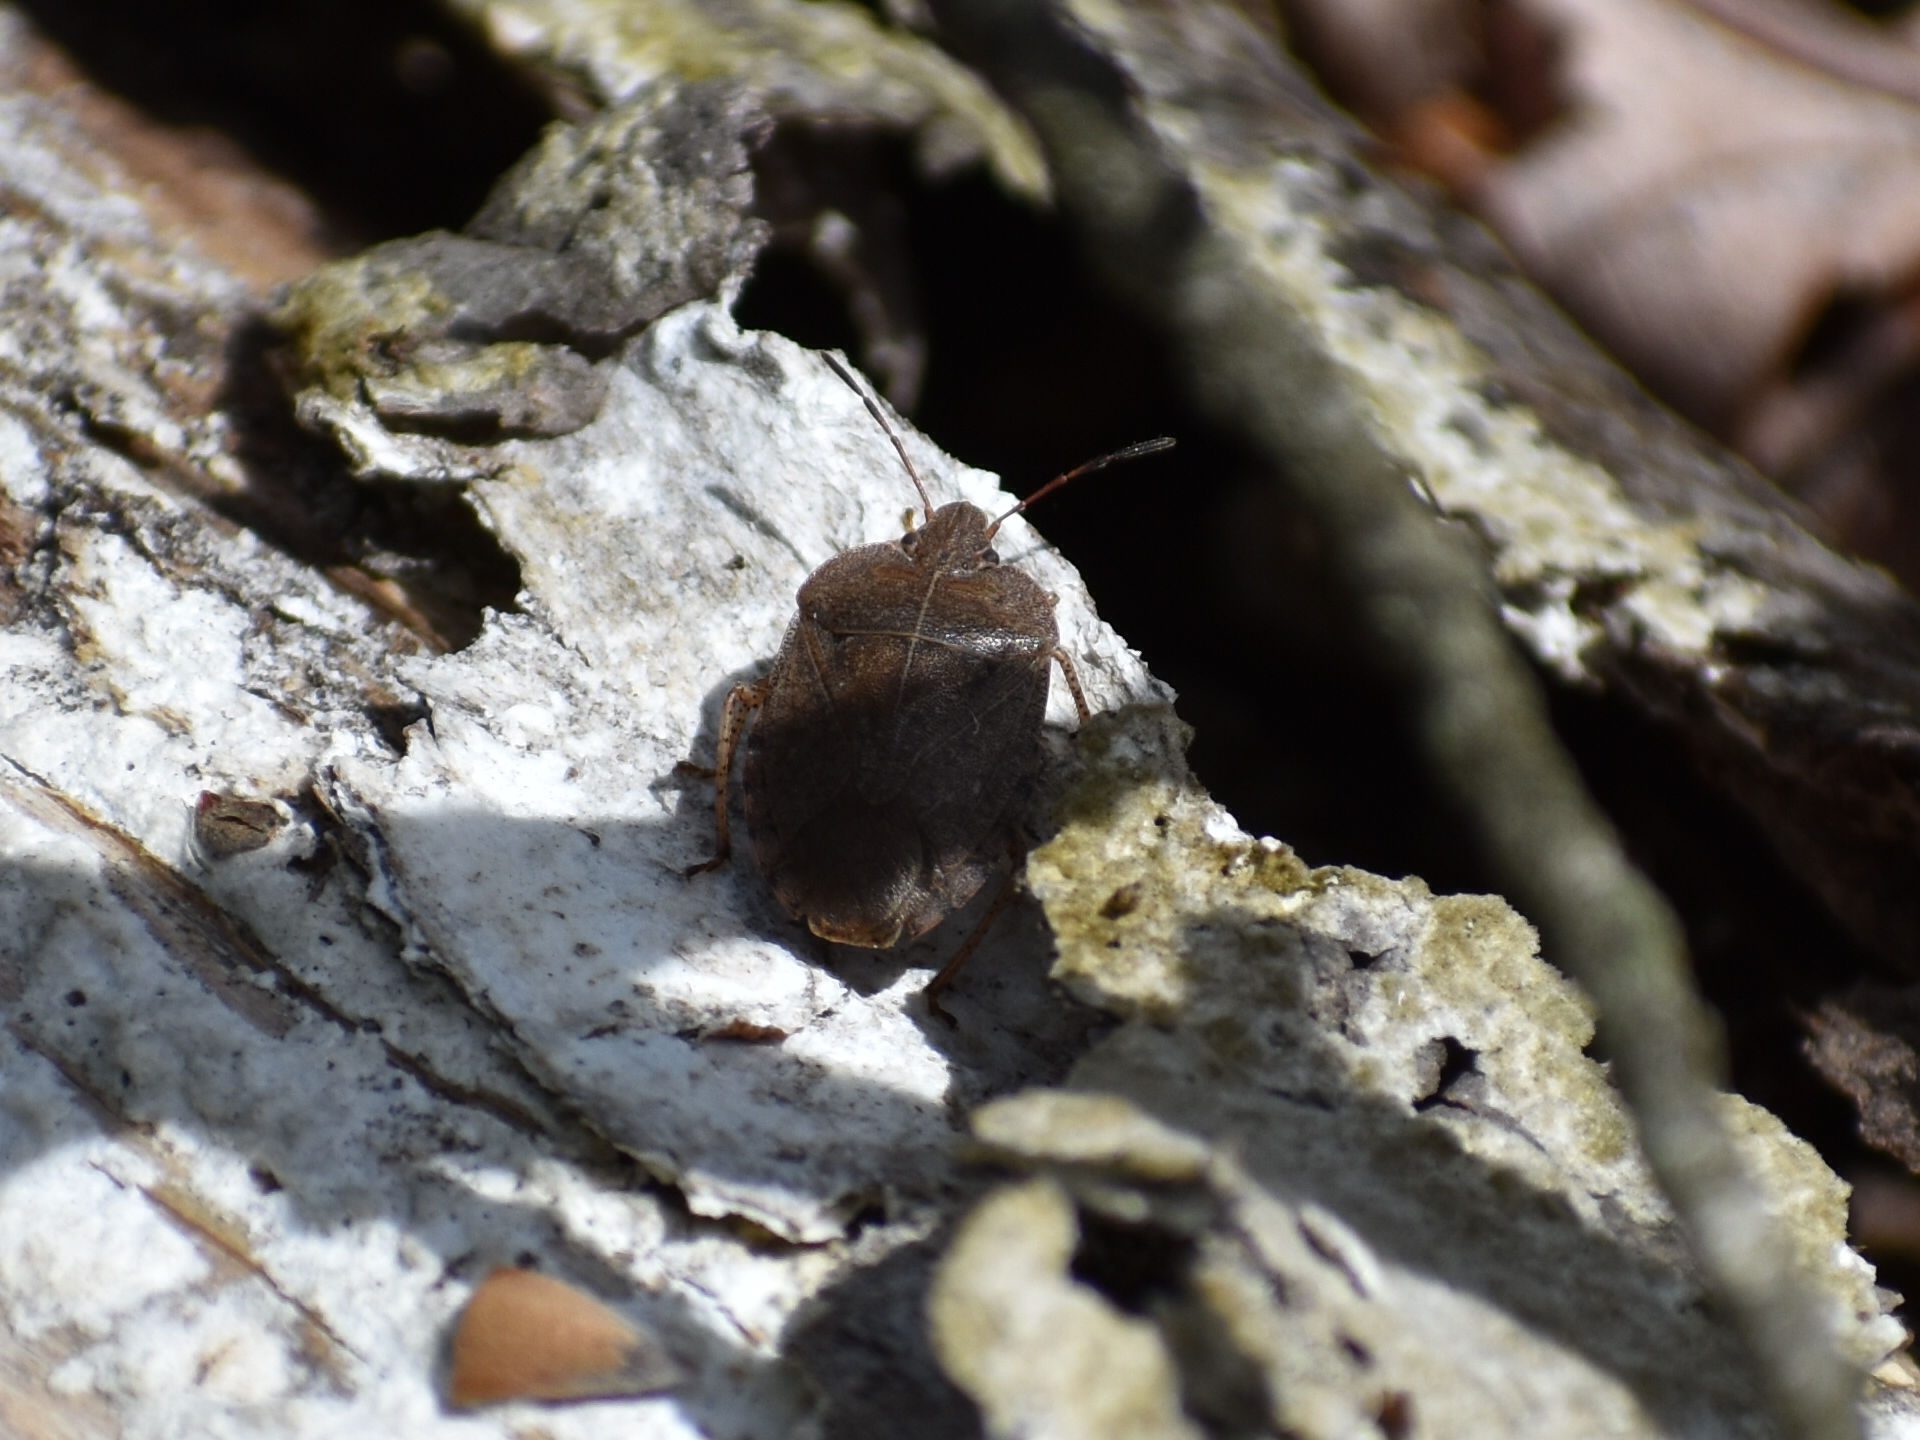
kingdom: Animalia
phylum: Arthropoda
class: Insecta
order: Hemiptera
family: Pentatomidae
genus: Menecles
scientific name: Menecles insertus
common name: Elf shoe stink bug
